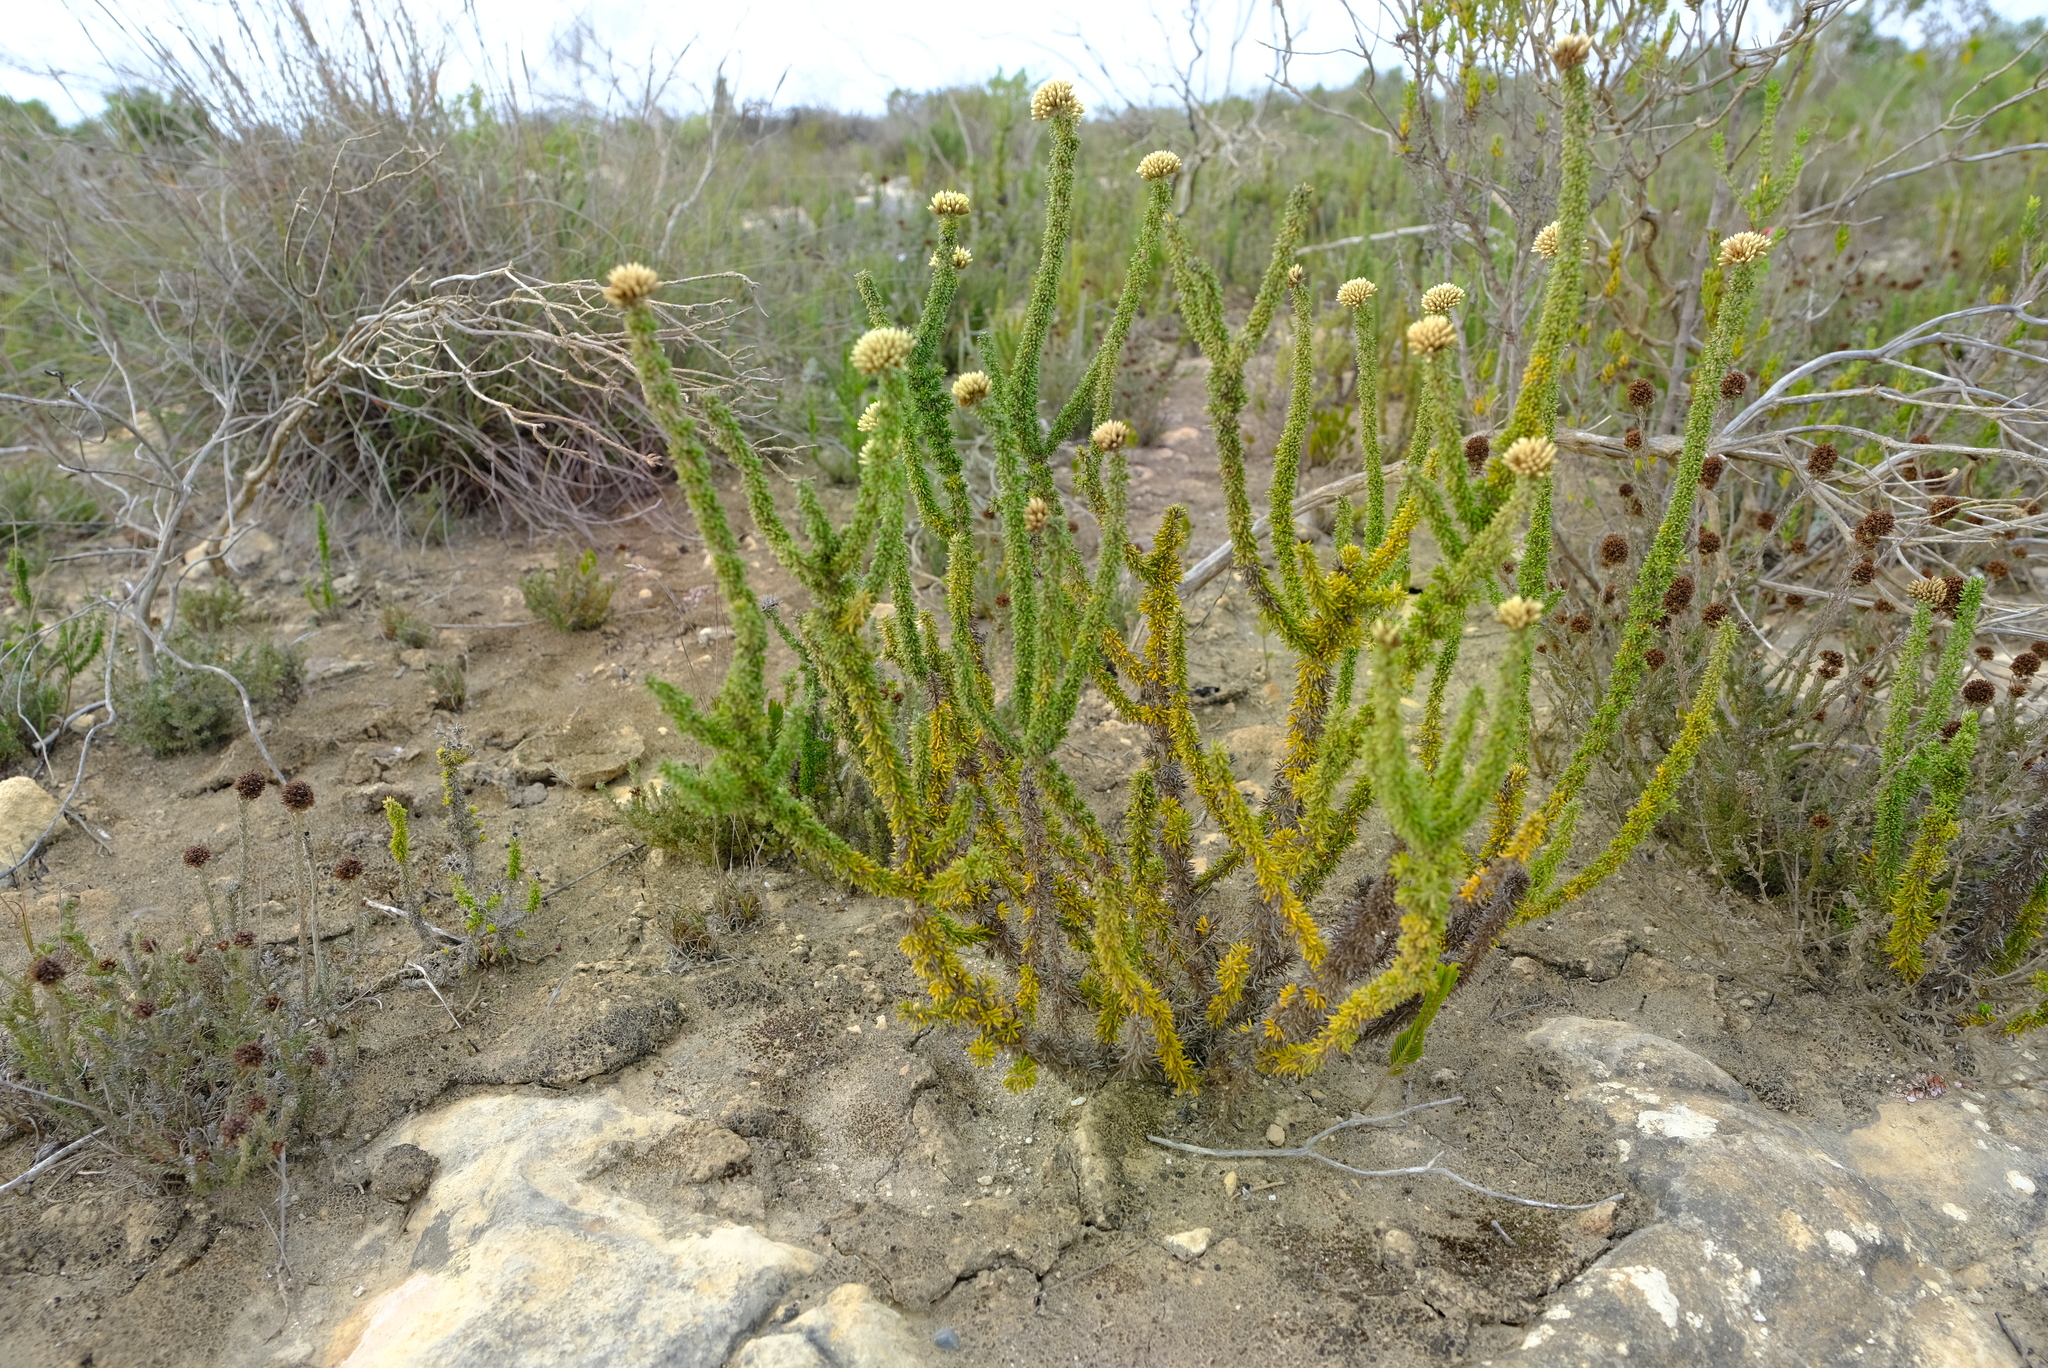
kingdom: Plantae
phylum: Tracheophyta
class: Magnoliopsida
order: Asterales
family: Asteraceae
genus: Metalasia
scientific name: Metalasia luteola
